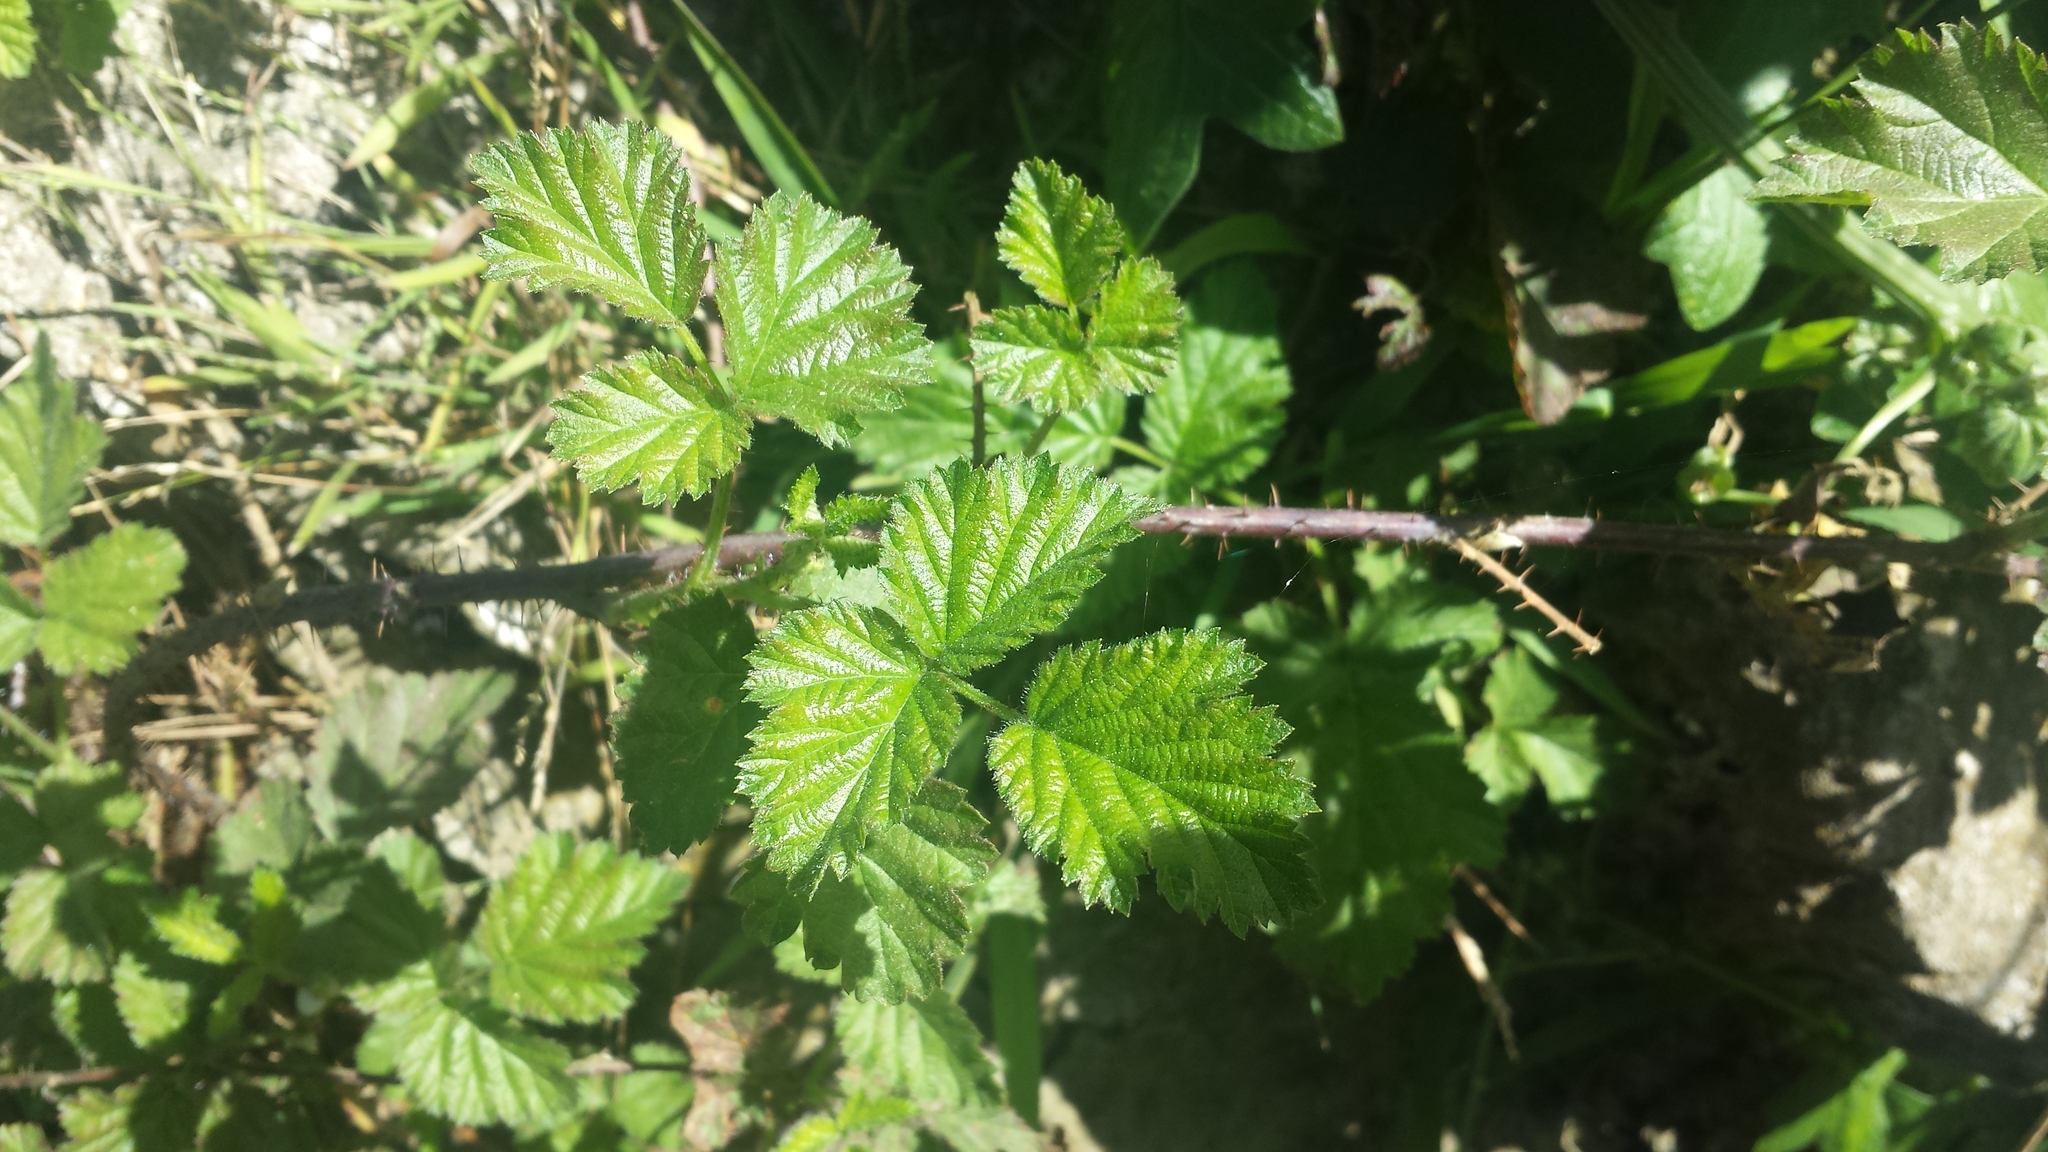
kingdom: Plantae
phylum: Tracheophyta
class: Magnoliopsida
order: Rosales
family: Rosaceae
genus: Rubus
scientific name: Rubus ursinus
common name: Pacific blackberry
